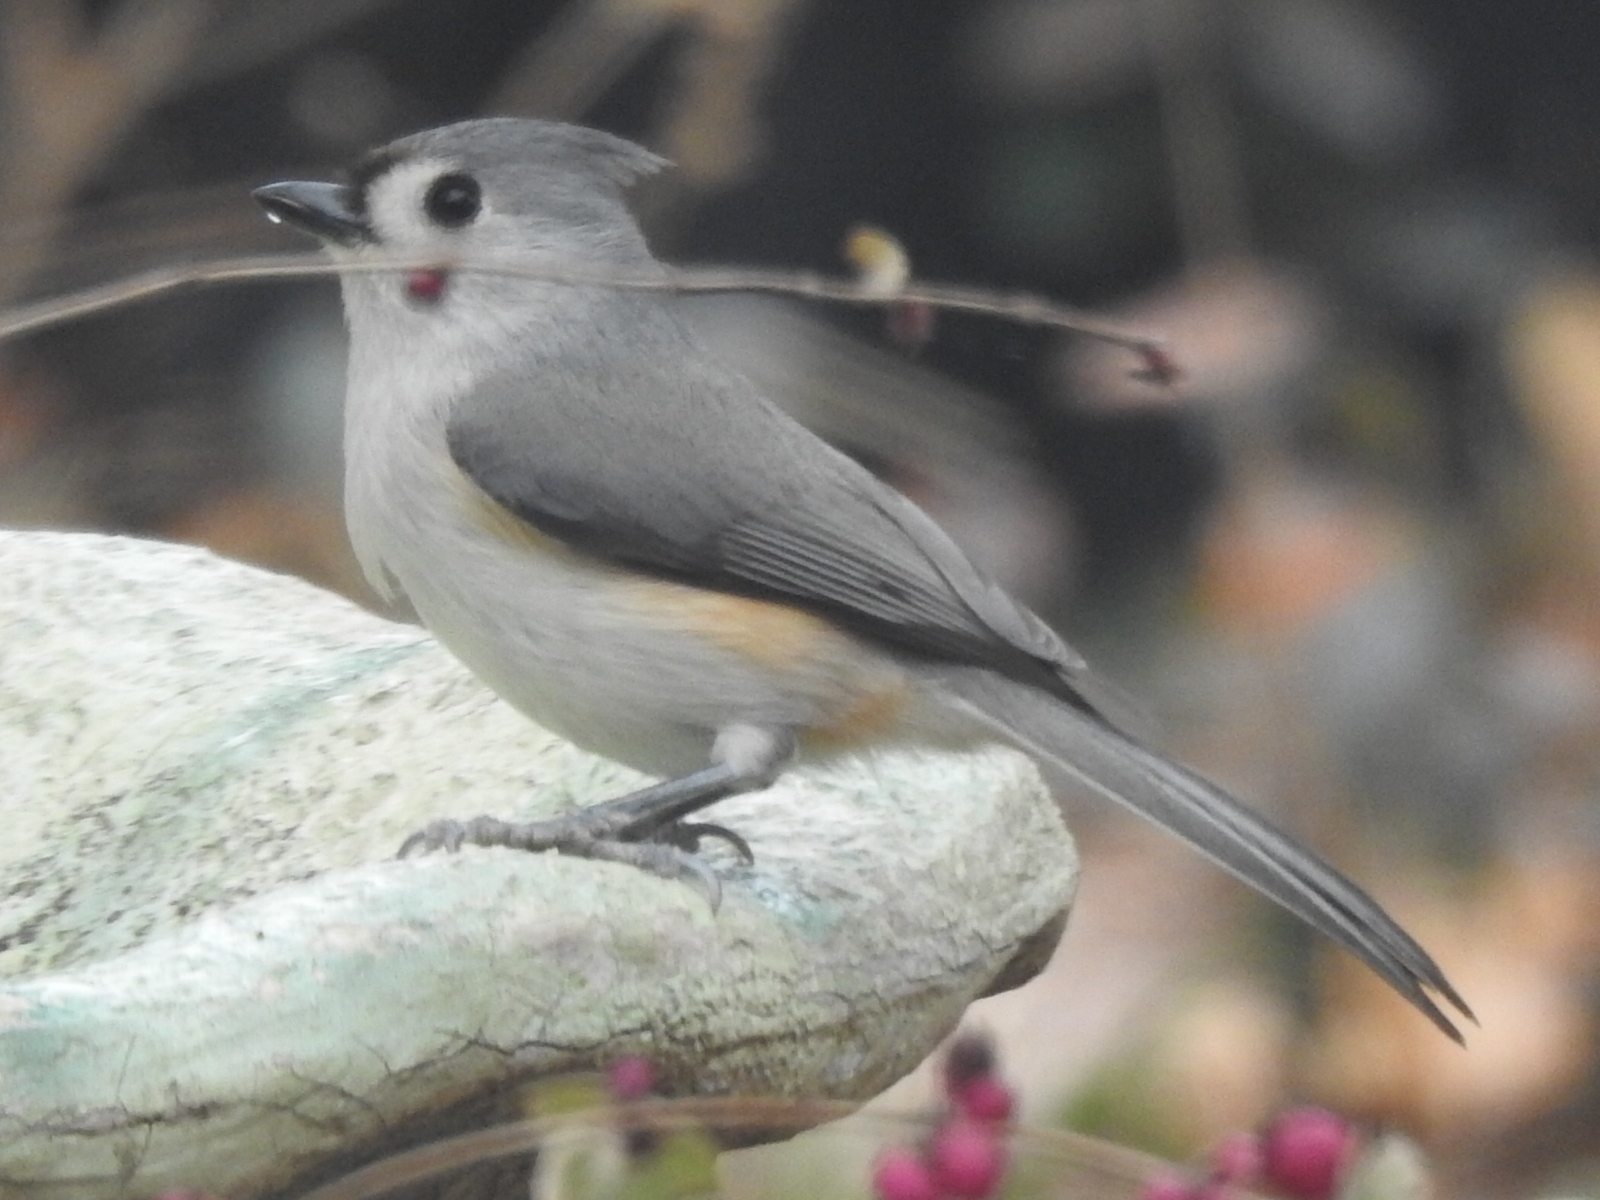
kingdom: Animalia
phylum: Chordata
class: Aves
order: Passeriformes
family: Paridae
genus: Baeolophus
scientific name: Baeolophus bicolor
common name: Tufted titmouse
